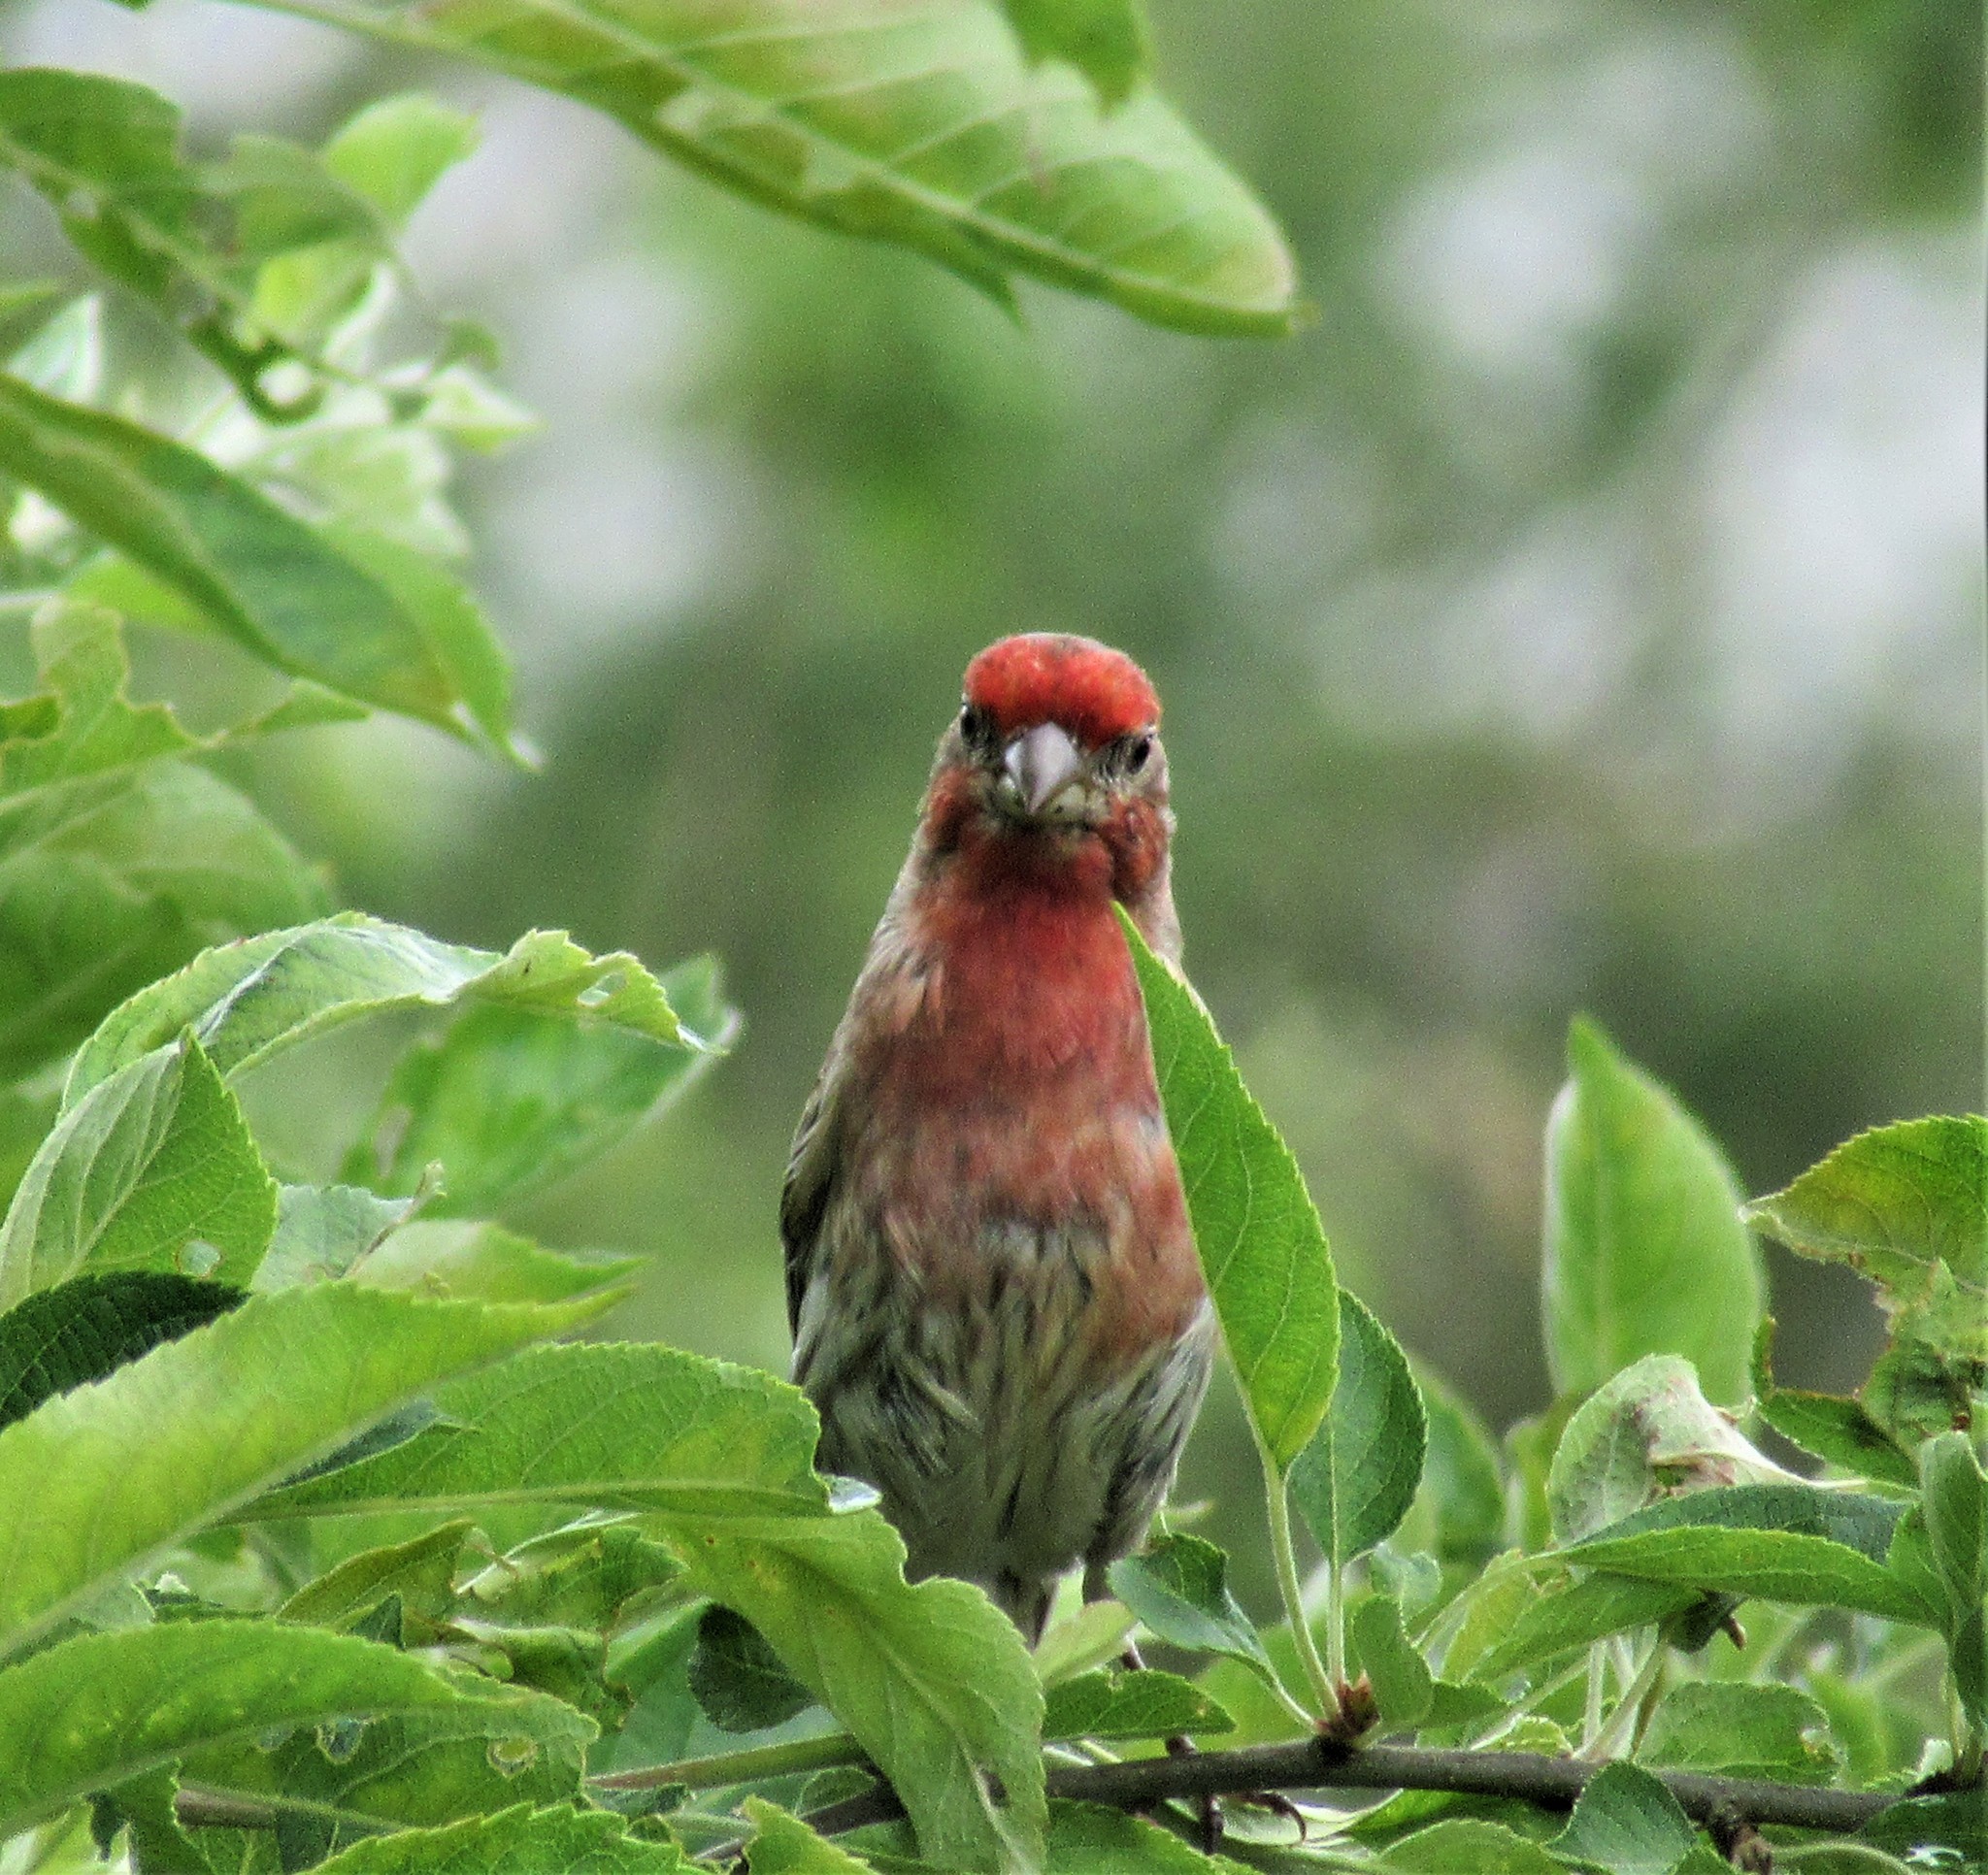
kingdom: Animalia
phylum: Chordata
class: Aves
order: Passeriformes
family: Fringillidae
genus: Haemorhous
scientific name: Haemorhous mexicanus
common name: House finch
